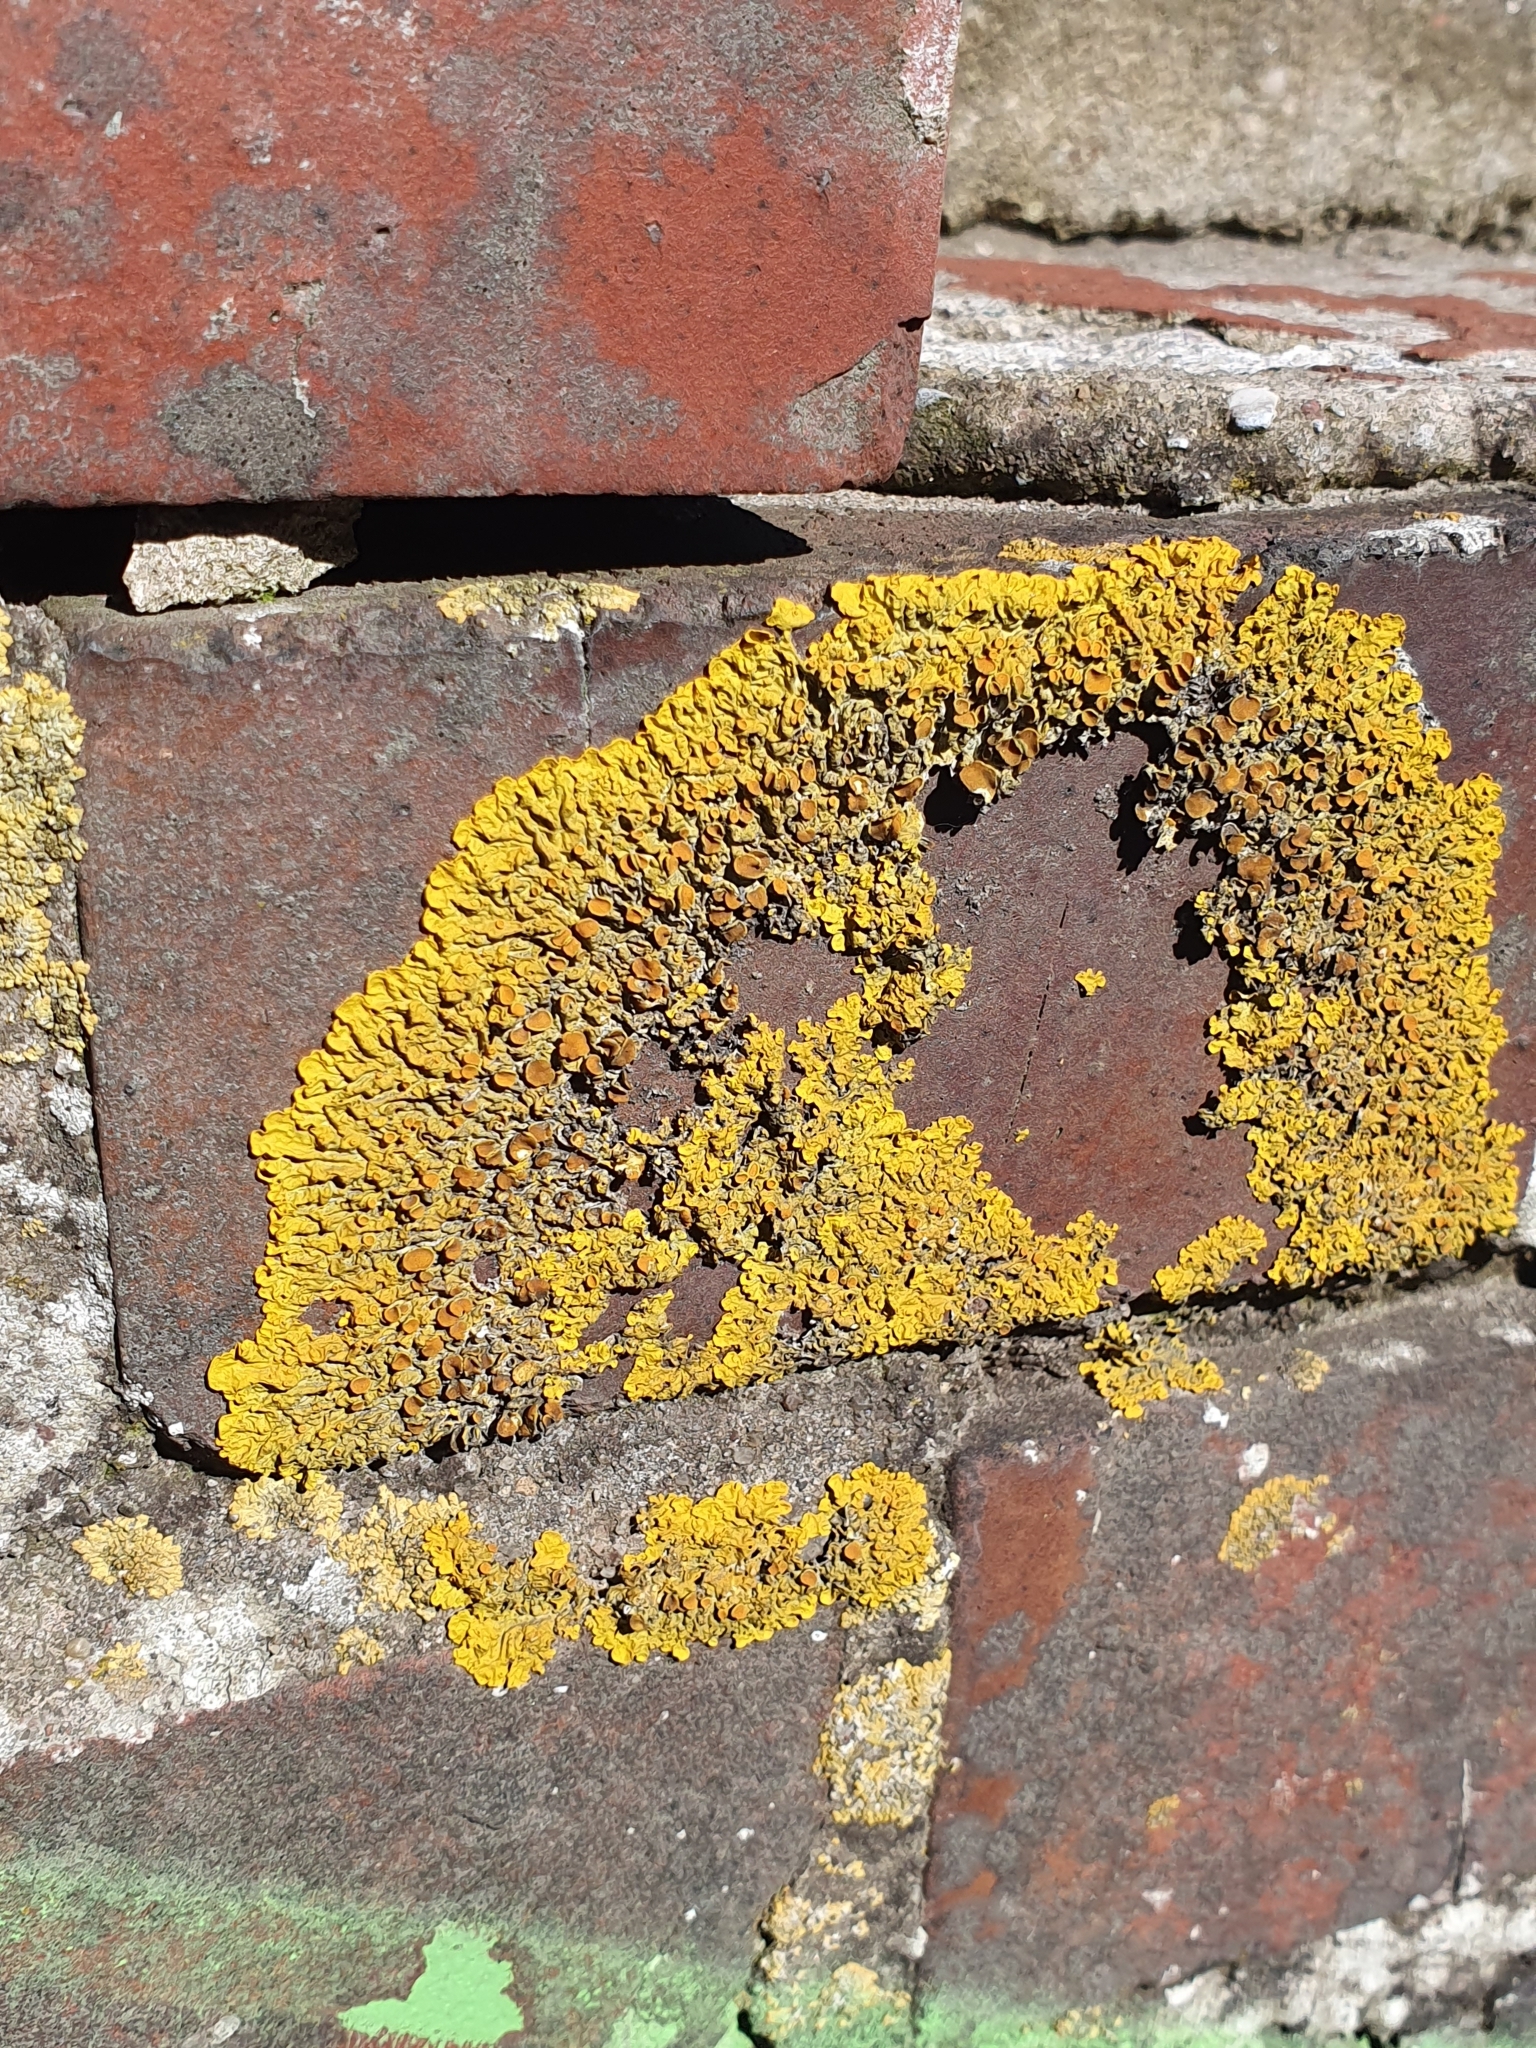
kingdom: Fungi
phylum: Ascomycota
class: Lecanoromycetes
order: Teloschistales
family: Teloschistaceae
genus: Xanthoria
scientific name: Xanthoria parietina
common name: Common orange lichen
